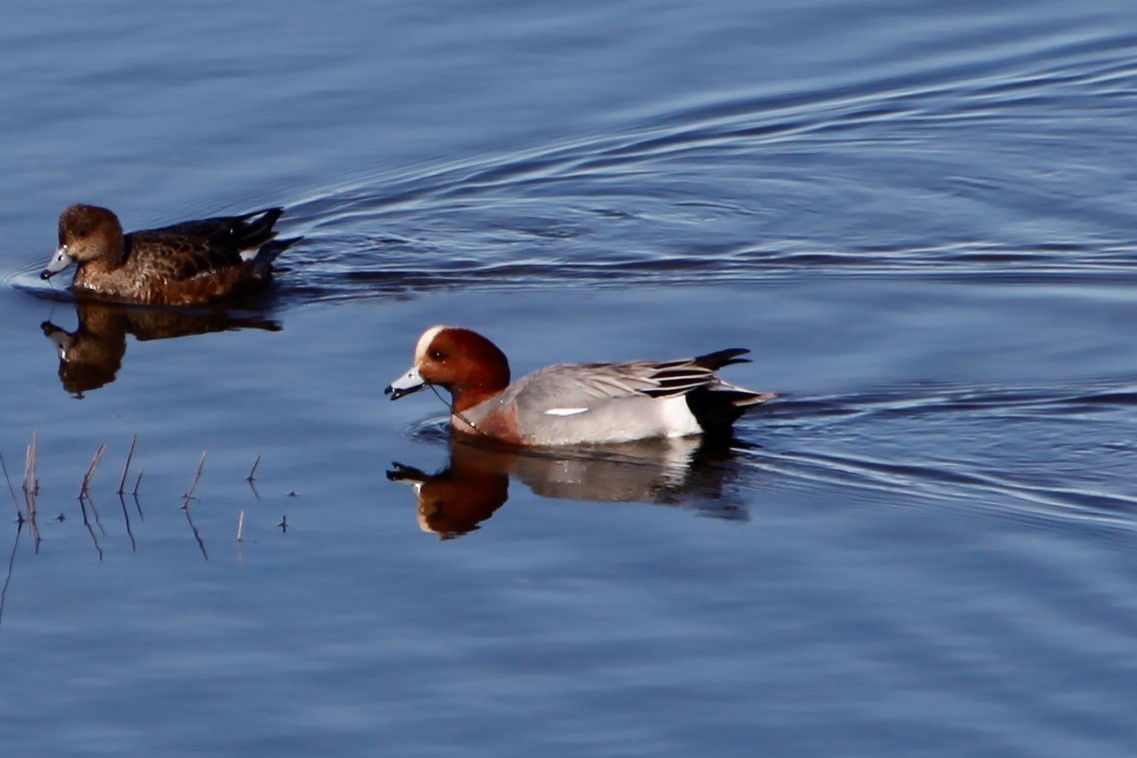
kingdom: Animalia
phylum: Chordata
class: Aves
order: Anseriformes
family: Anatidae
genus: Mareca
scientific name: Mareca penelope
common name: Eurasian wigeon
